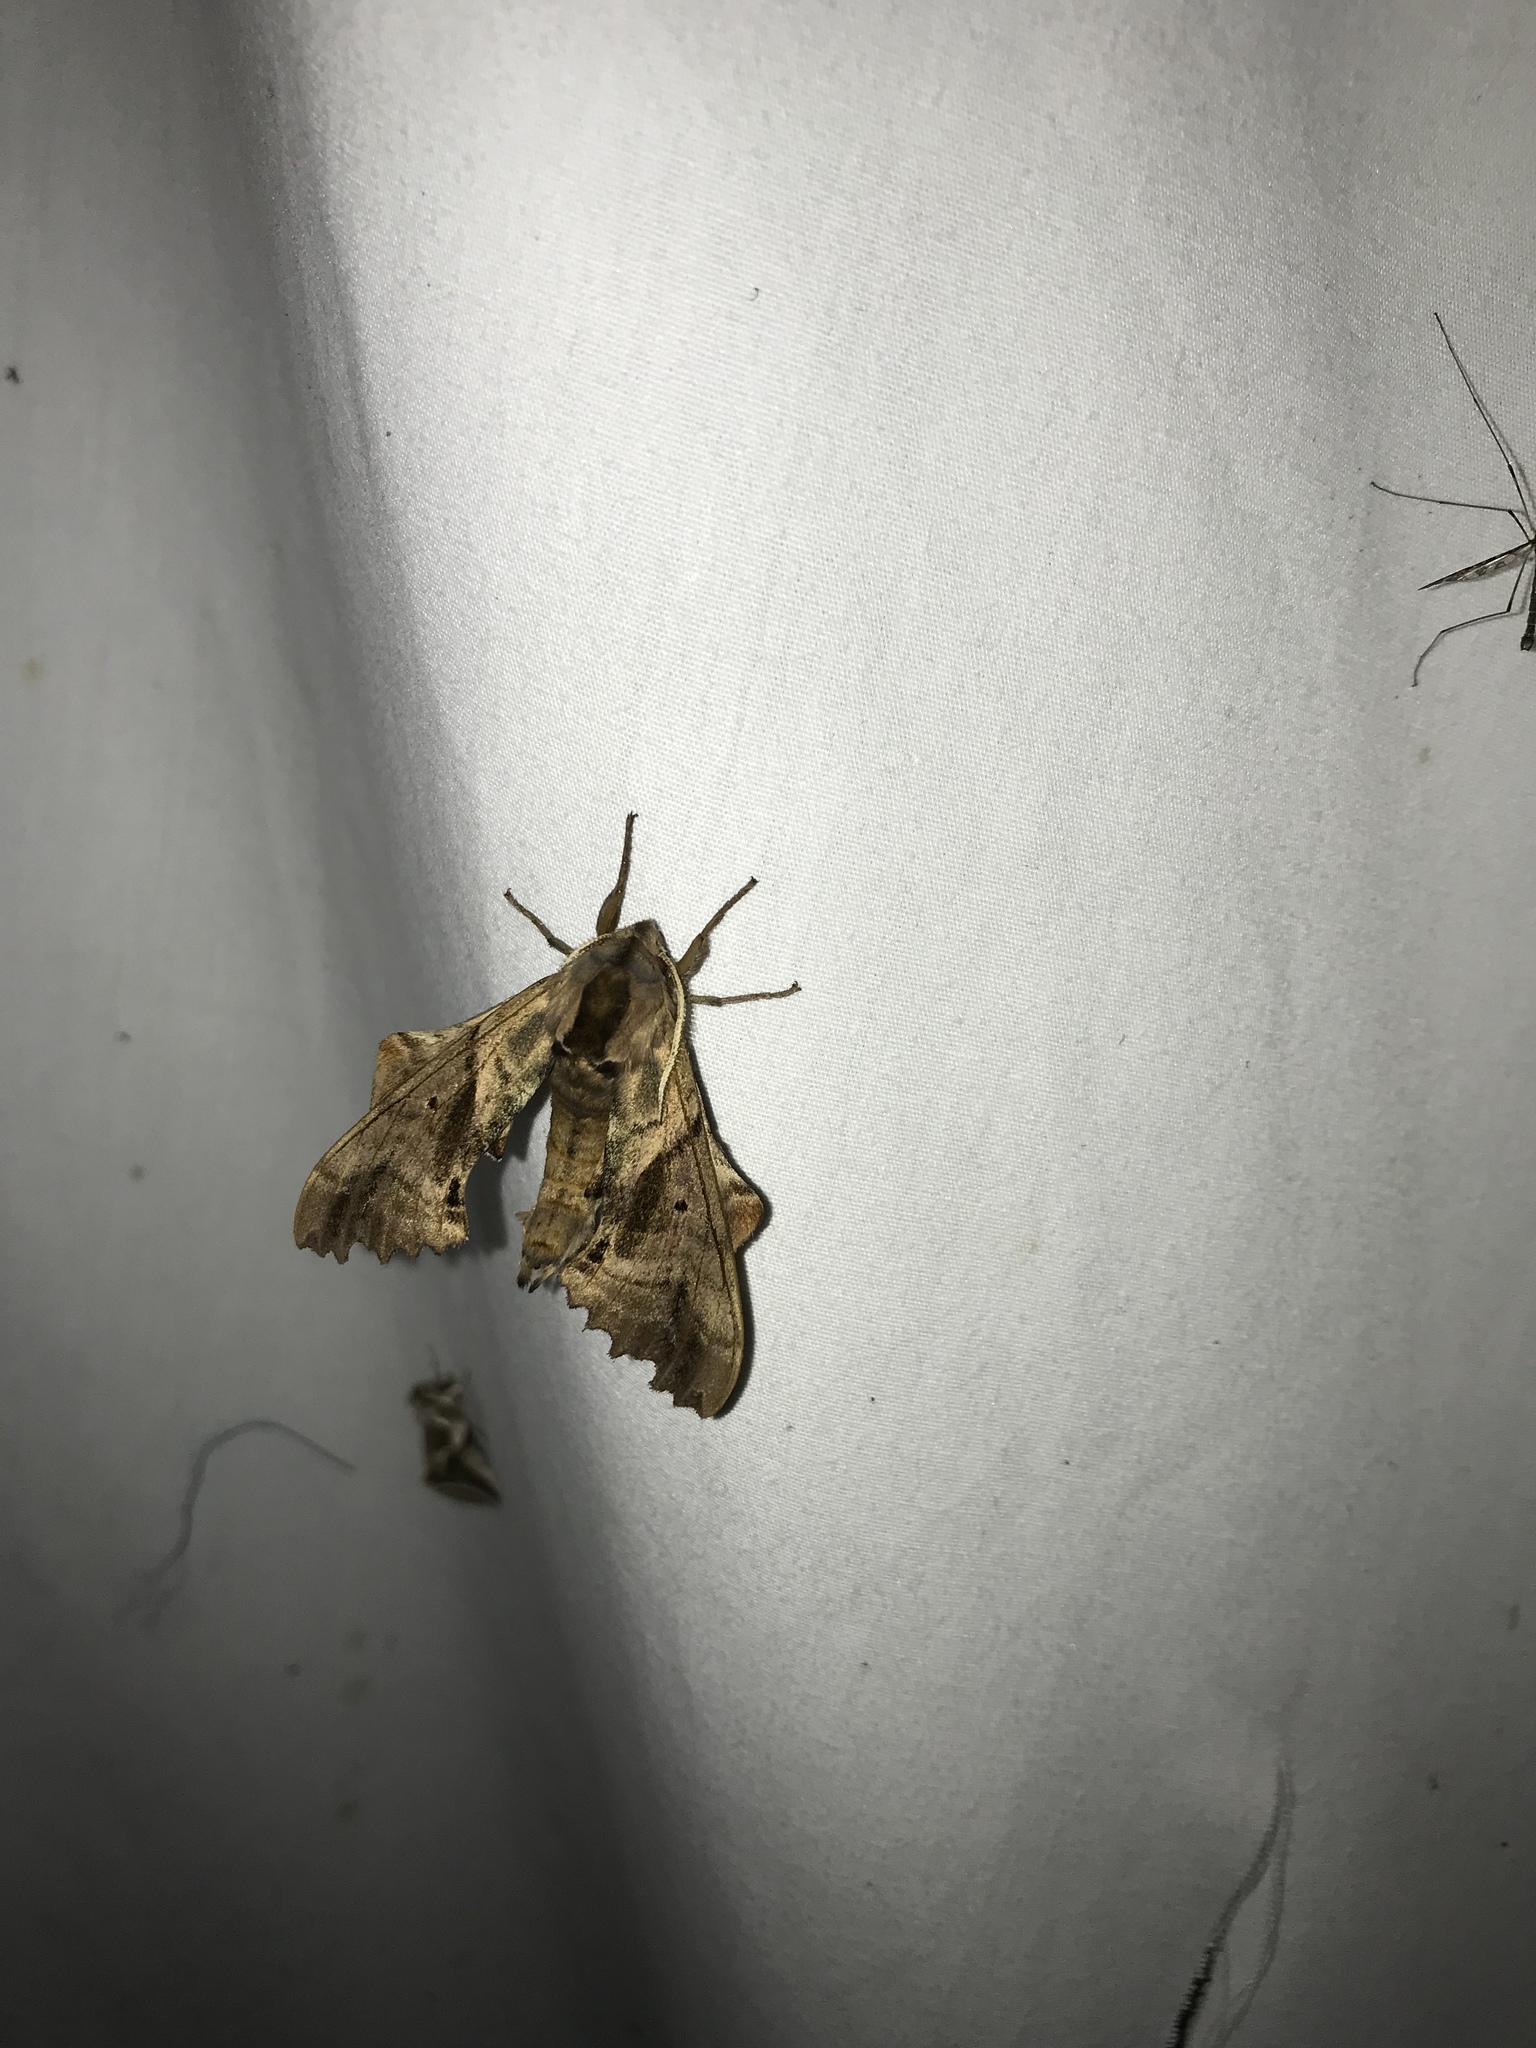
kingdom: Animalia
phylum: Arthropoda
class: Insecta
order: Lepidoptera
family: Sphingidae
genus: Paonias
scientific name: Paonias excaecata
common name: Blind-eyed sphinx
